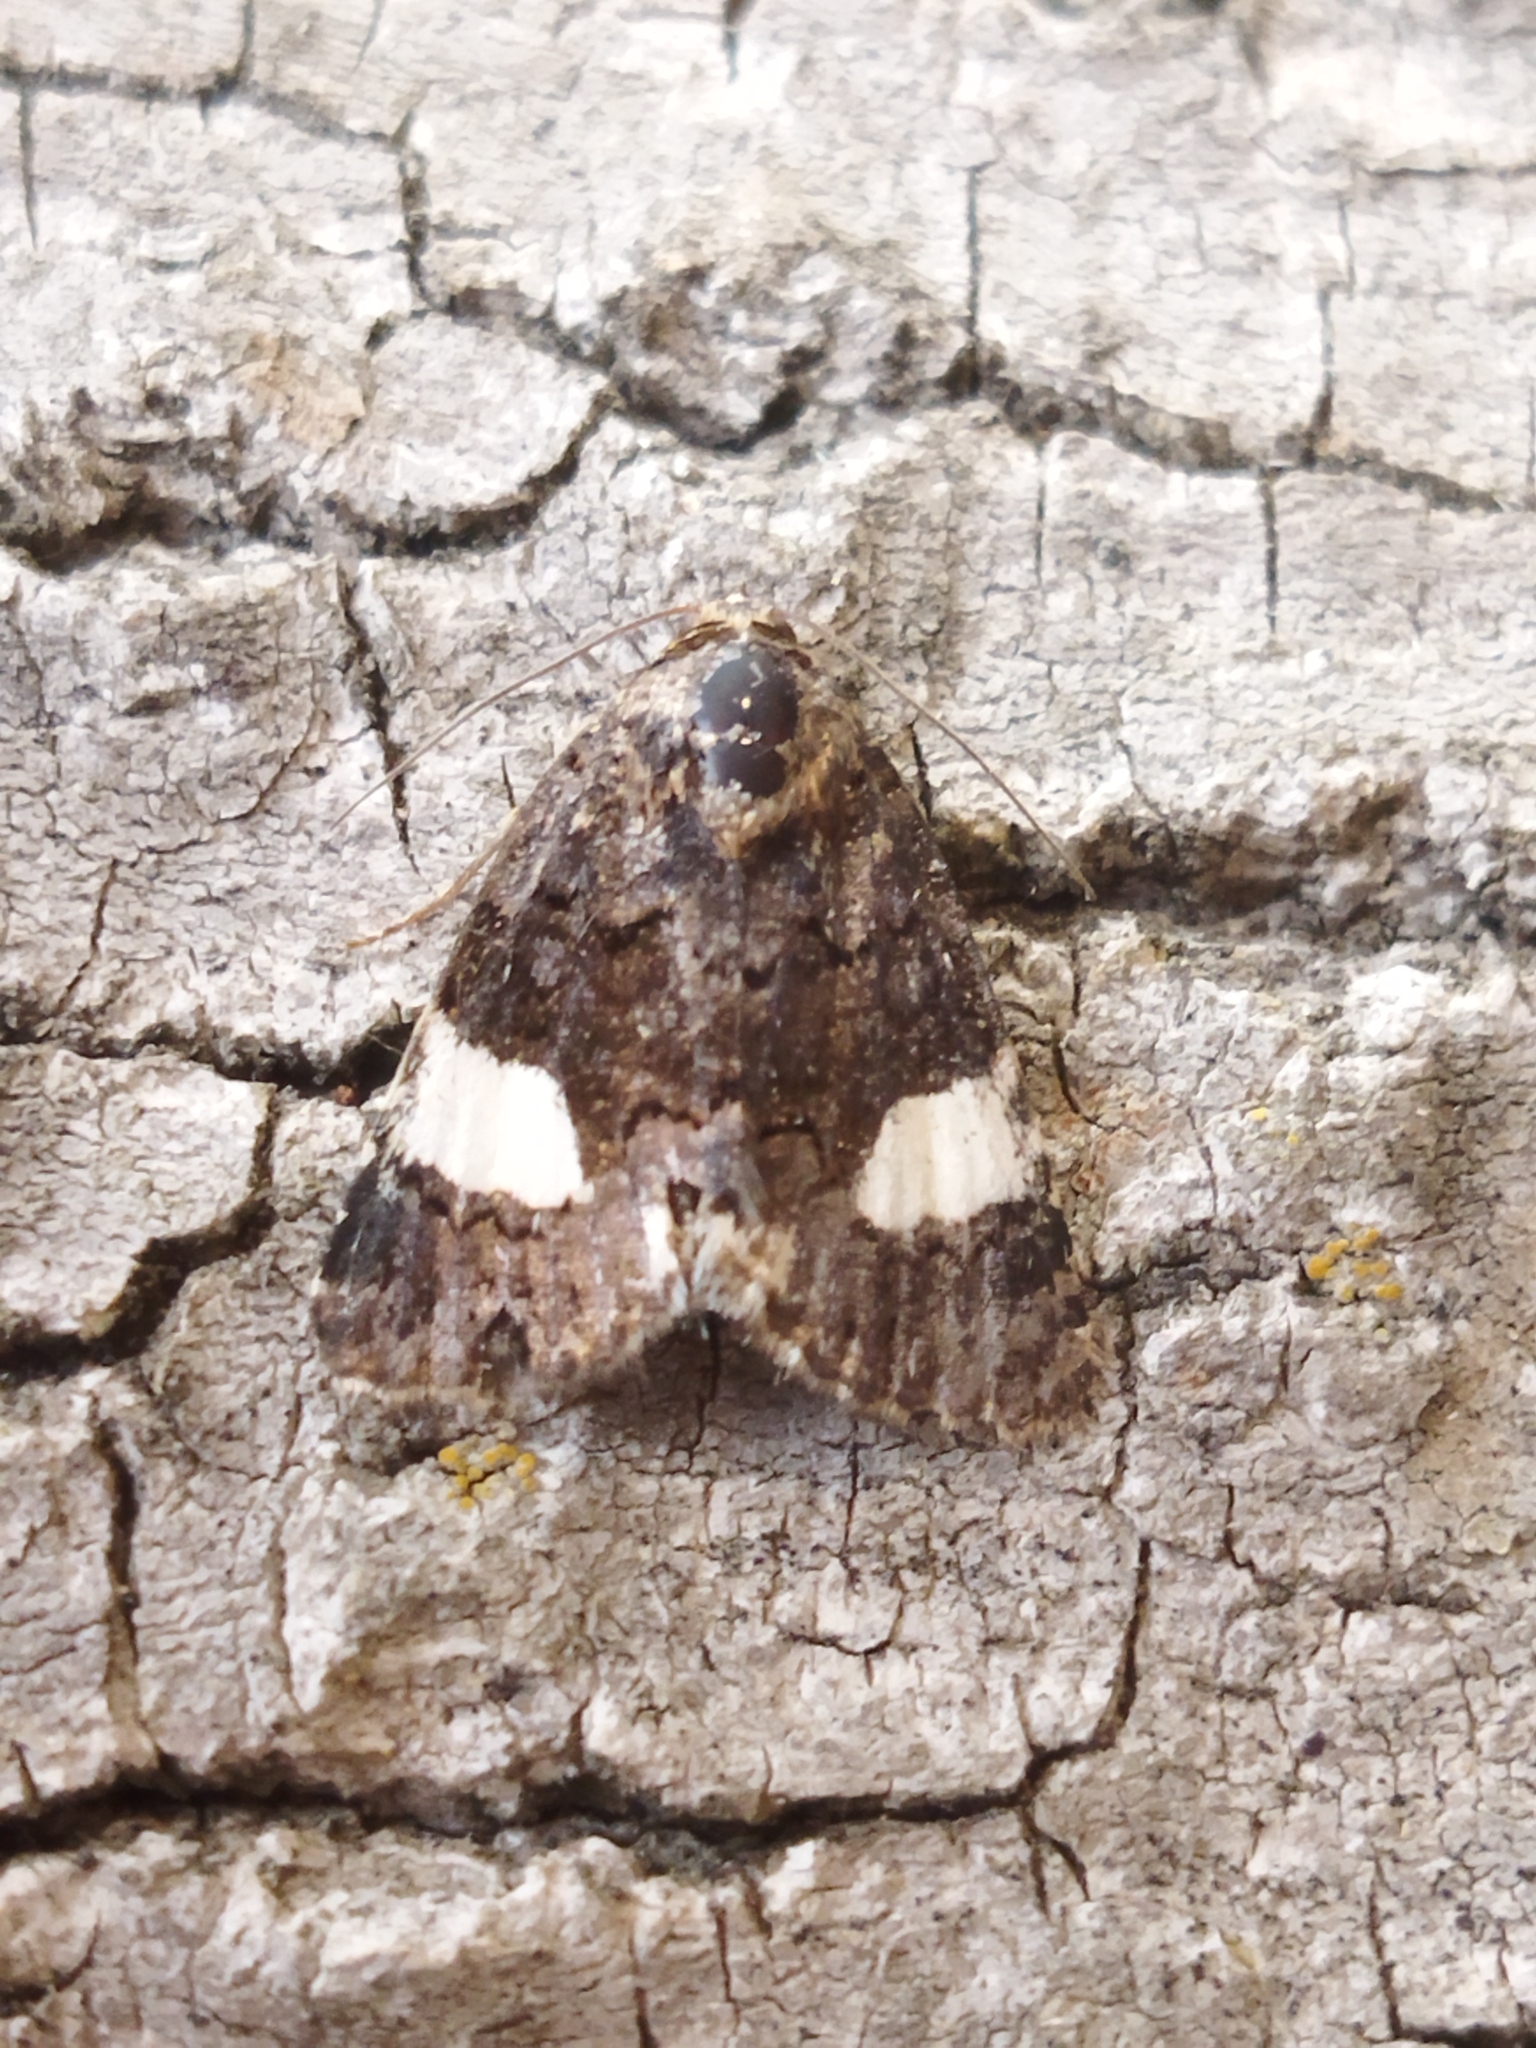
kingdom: Animalia
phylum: Arthropoda
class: Insecta
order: Lepidoptera
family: Erebidae
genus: Tyta
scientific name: Tyta luctuosa
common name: Four-spotted
